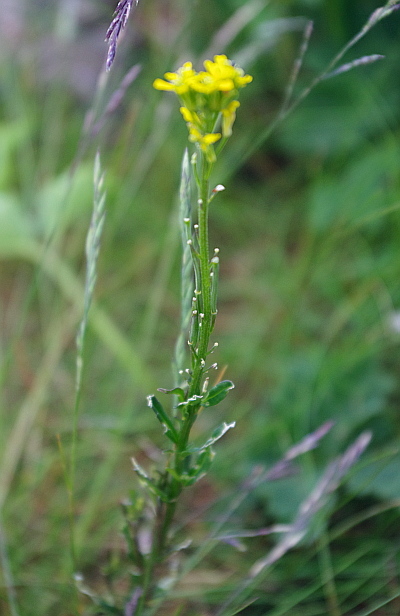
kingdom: Plantae
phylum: Tracheophyta
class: Magnoliopsida
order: Brassicales
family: Brassicaceae
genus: Erysimum
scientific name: Erysimum hieraciifolium
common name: European wallflower
